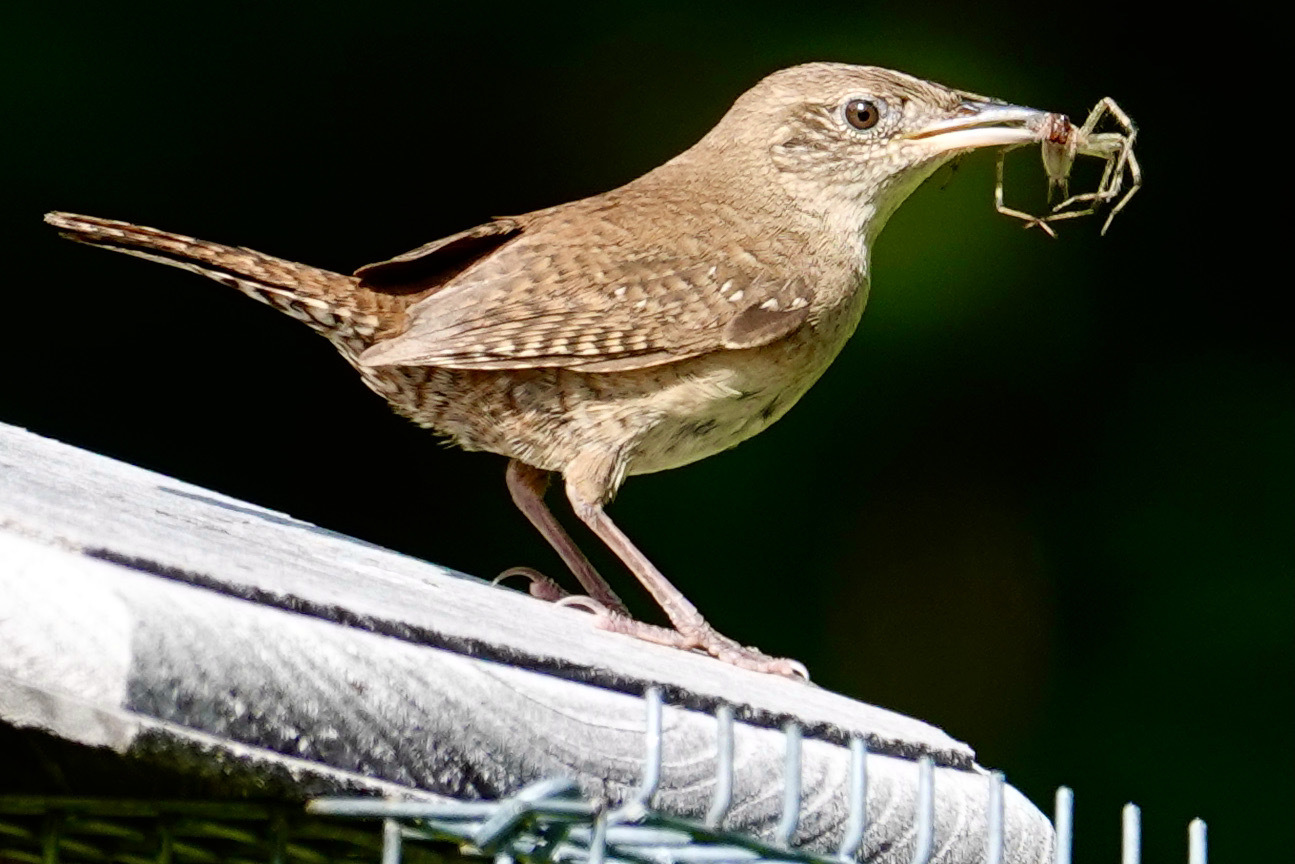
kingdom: Animalia
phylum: Chordata
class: Aves
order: Passeriformes
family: Troglodytidae
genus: Troglodytes
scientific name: Troglodytes aedon
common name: House wren
